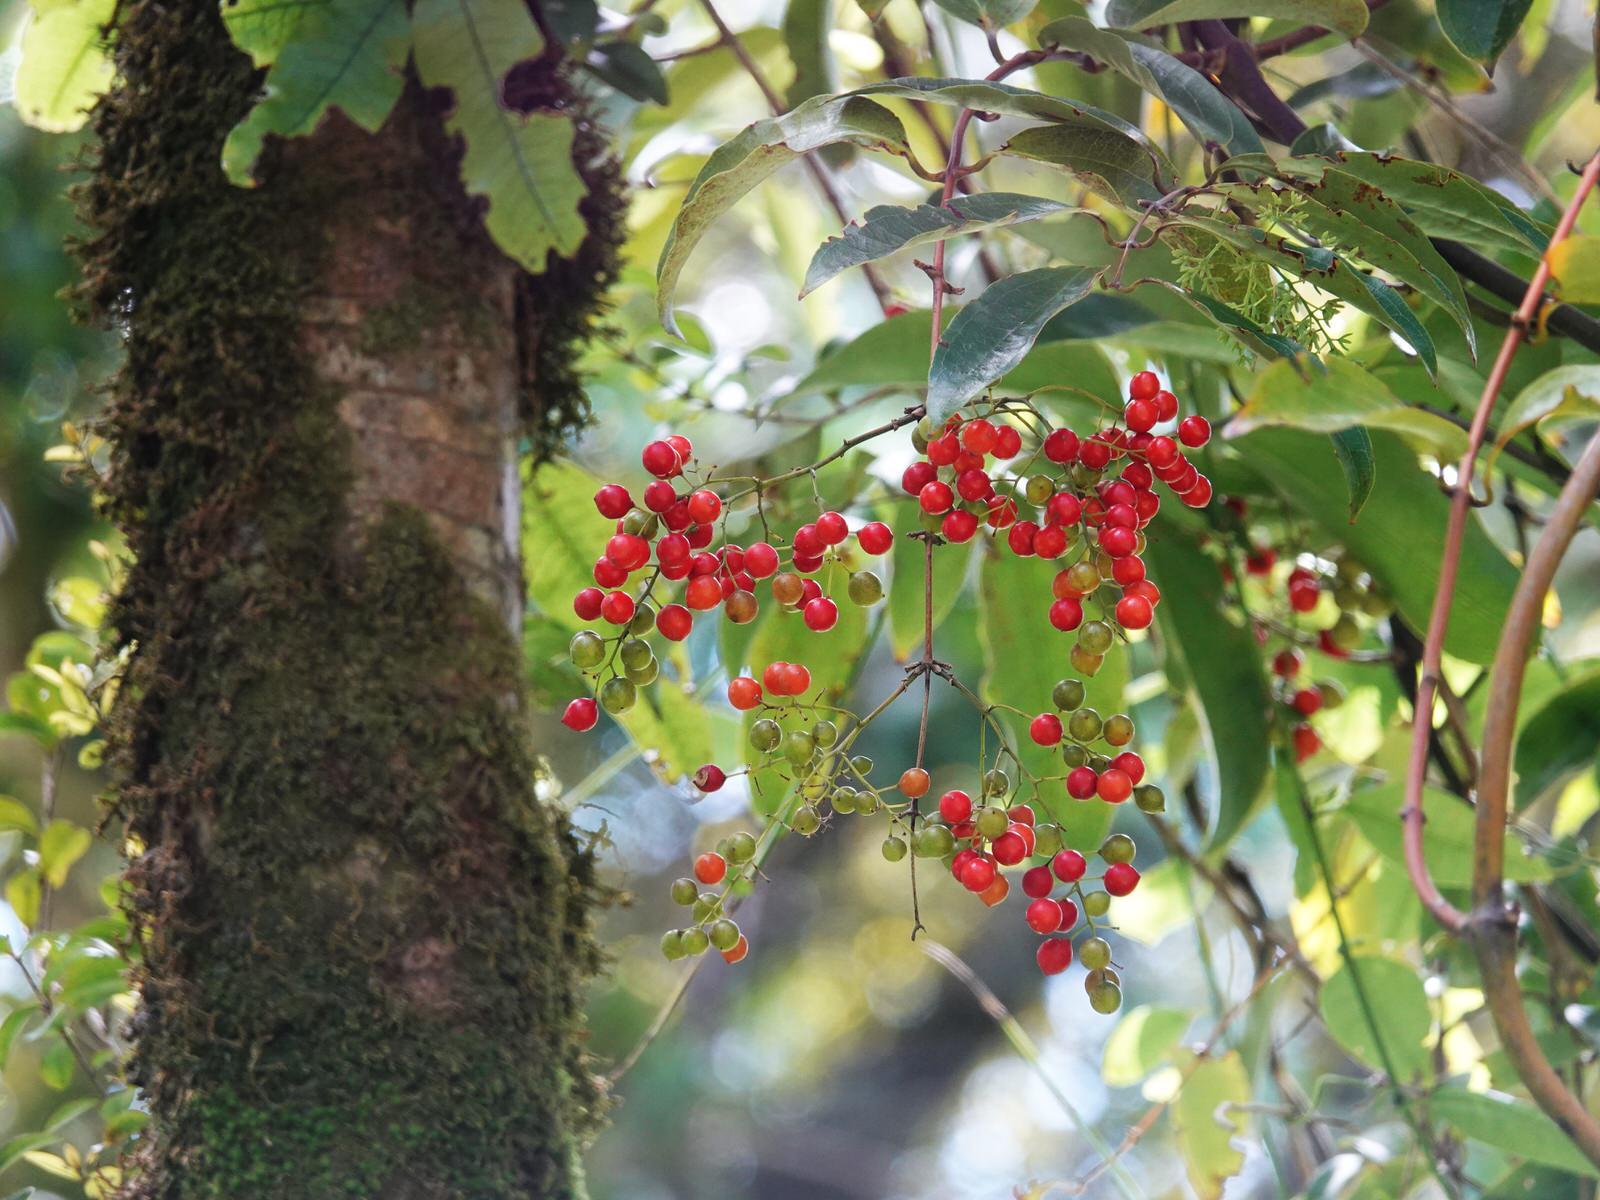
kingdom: Plantae
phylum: Tracheophyta
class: Liliopsida
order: Liliales
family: Ripogonaceae
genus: Ripogonum
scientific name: Ripogonum scandens
